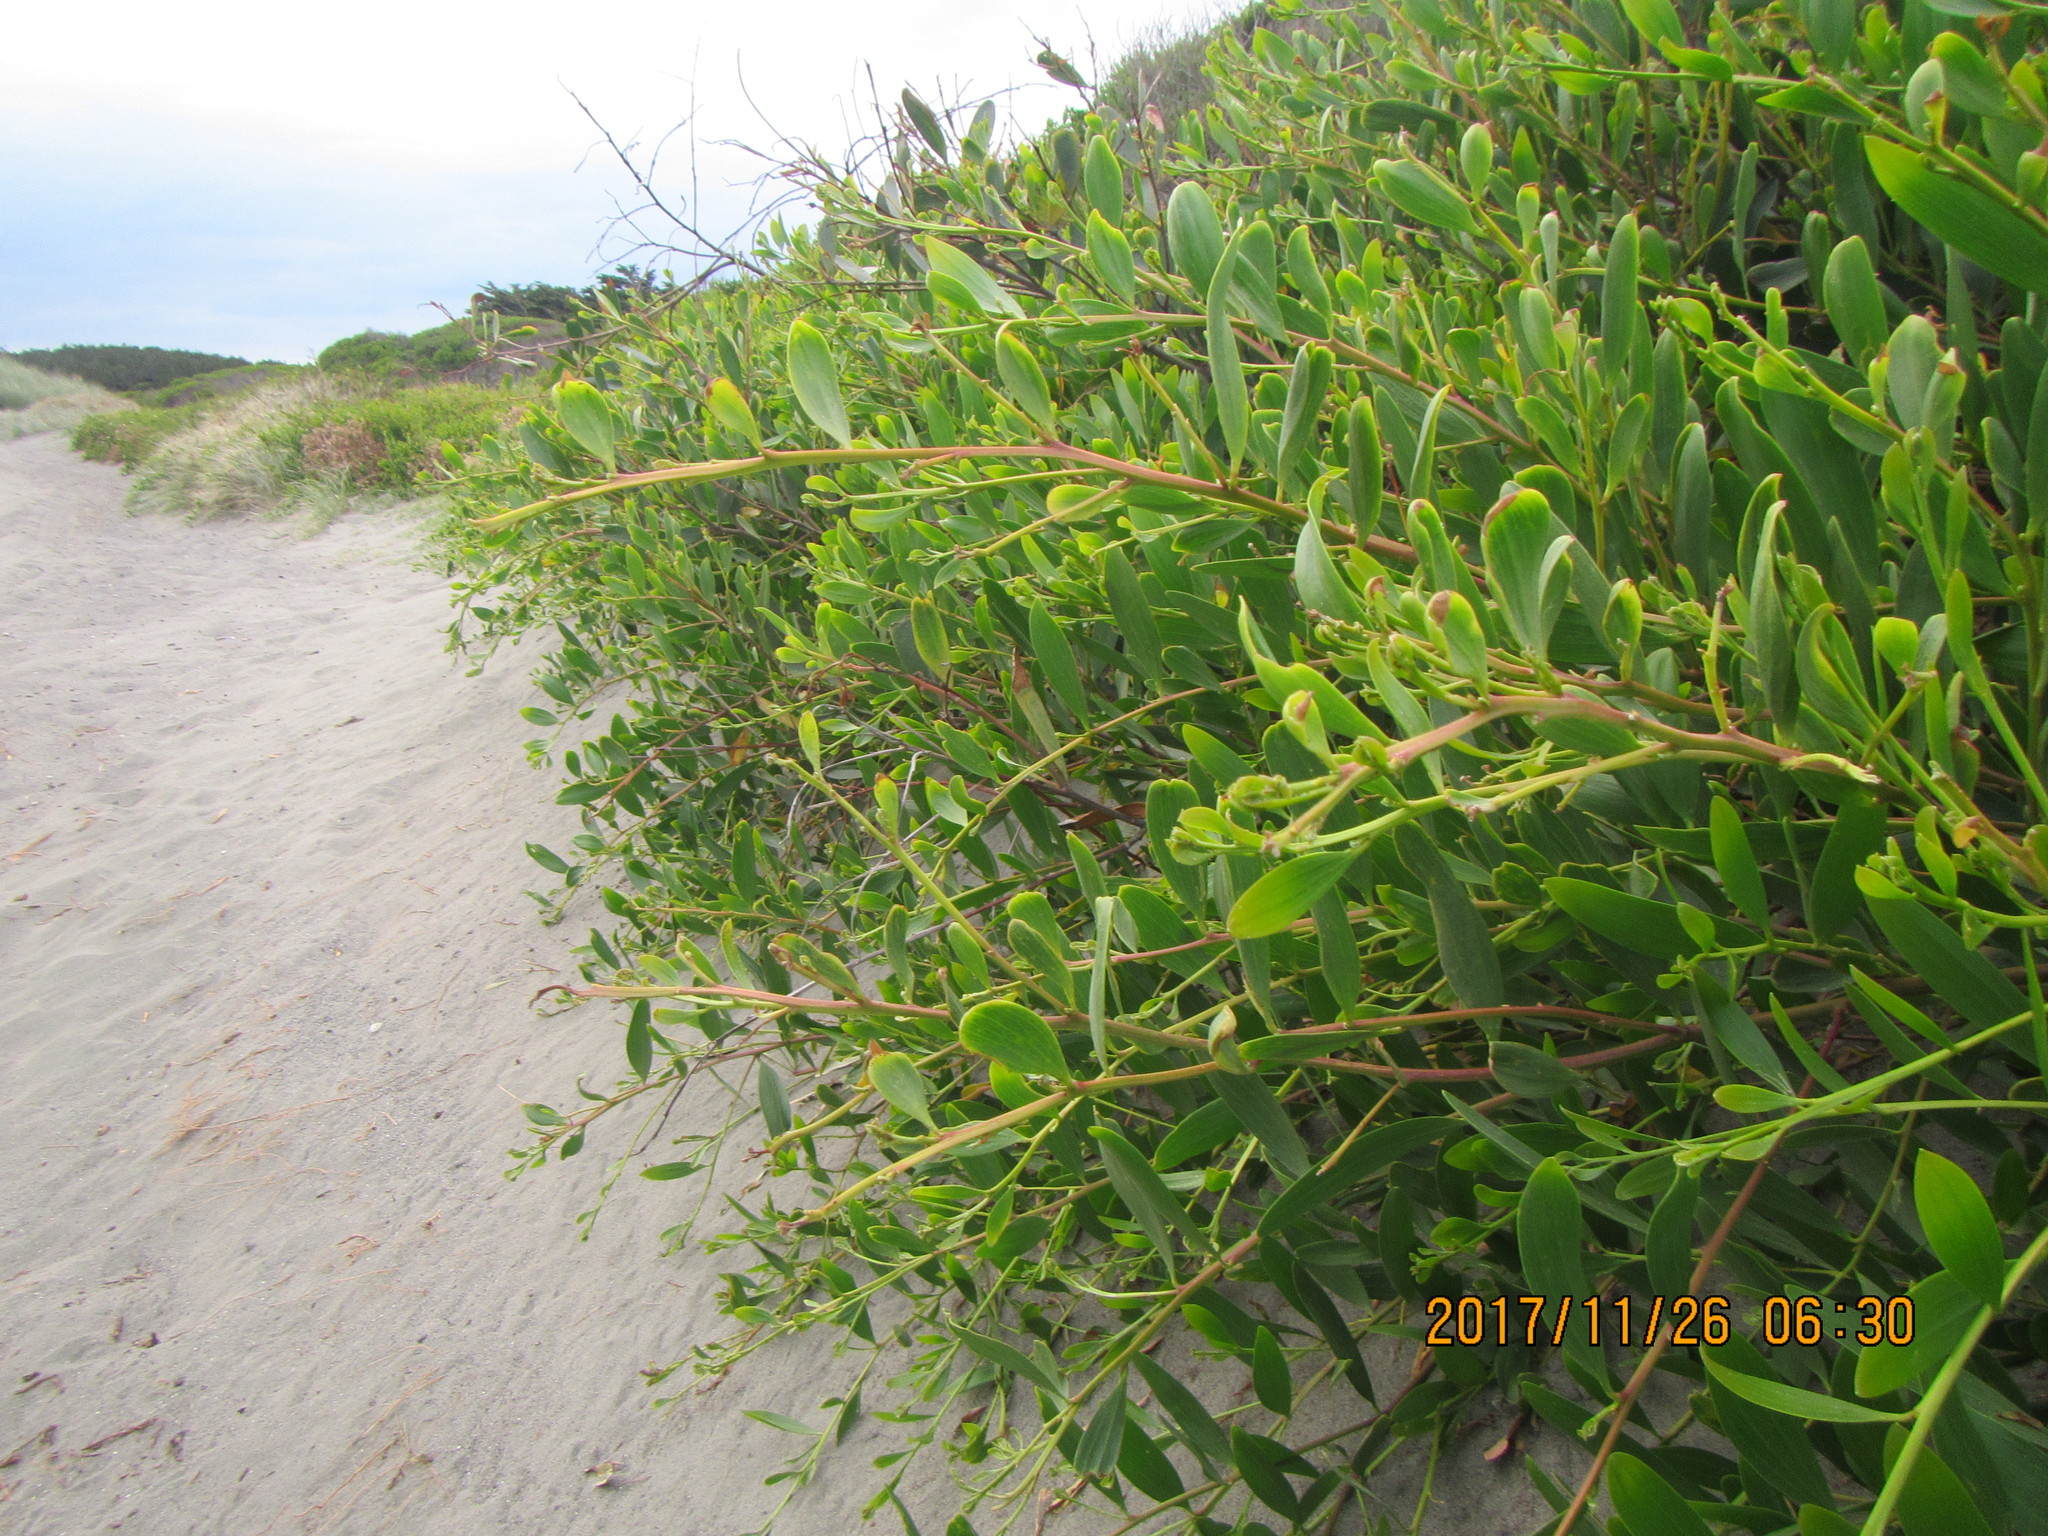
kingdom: Plantae
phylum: Tracheophyta
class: Magnoliopsida
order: Fabales
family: Fabaceae
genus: Acacia
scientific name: Acacia longifolia
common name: Sydney golden wattle
